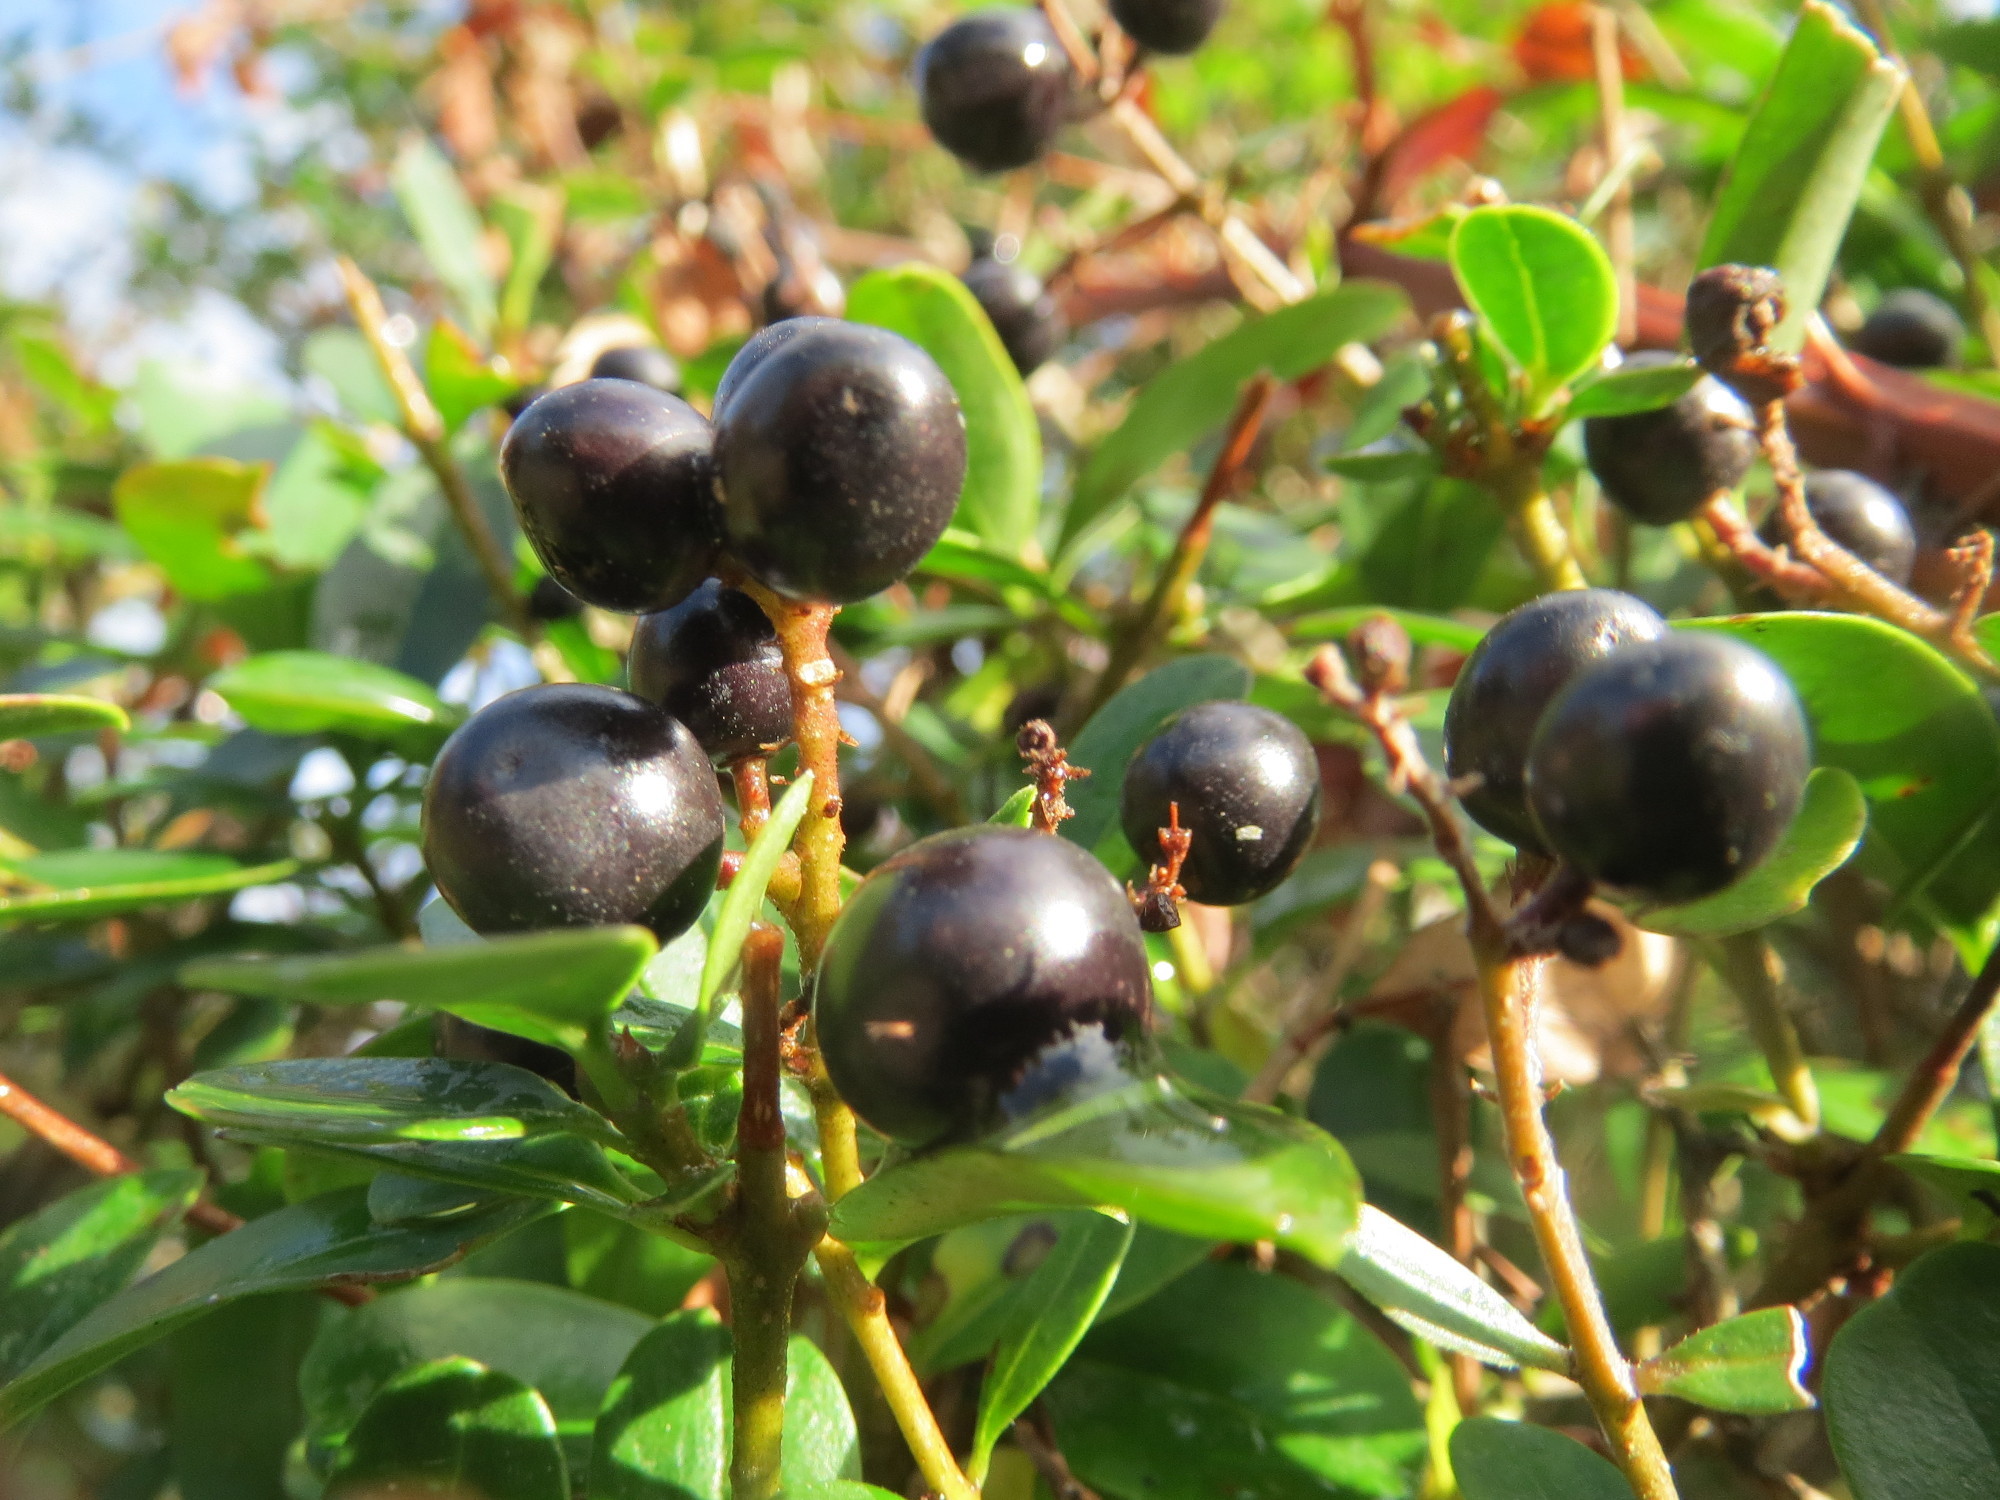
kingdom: Plantae
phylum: Tracheophyta
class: Magnoliopsida
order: Lamiales
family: Oleaceae
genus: Ligustrum
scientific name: Ligustrum vulgare
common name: Wild privet
